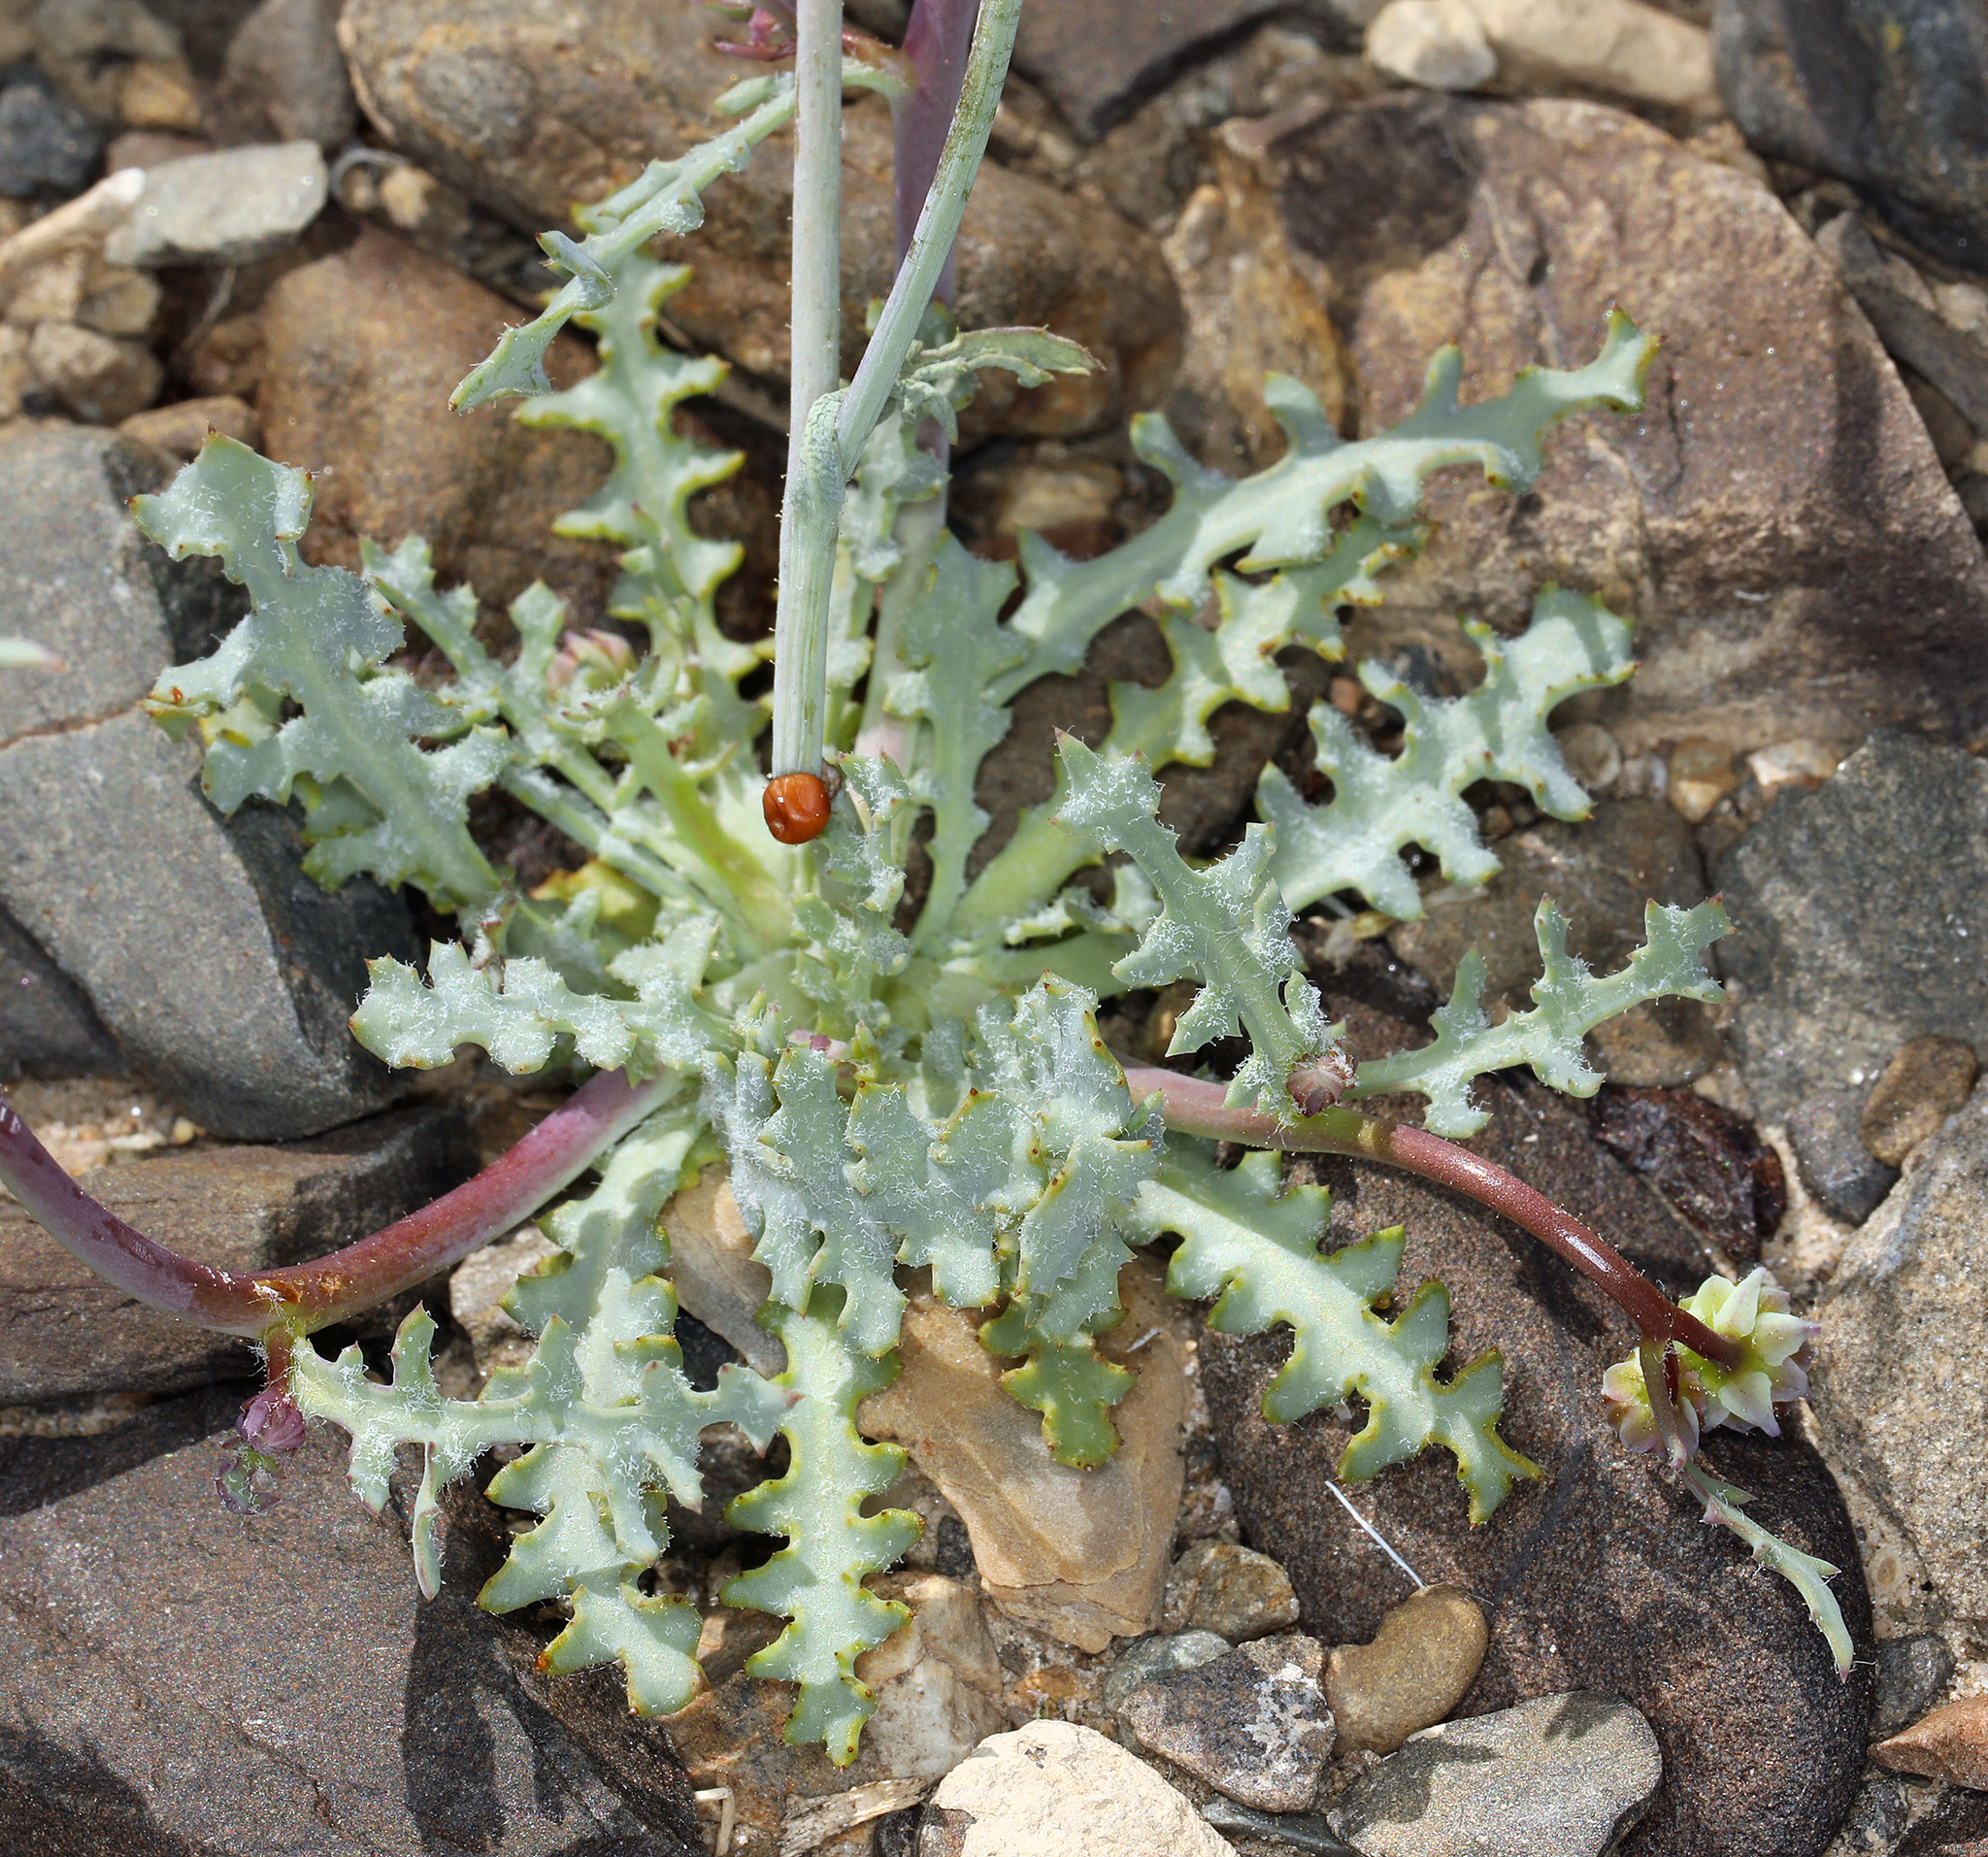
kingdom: Plantae
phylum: Tracheophyta
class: Magnoliopsida
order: Asterales
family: Asteraceae
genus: Malacothrix
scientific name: Malacothrix torreyi
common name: Torrey's desert-dandelion
